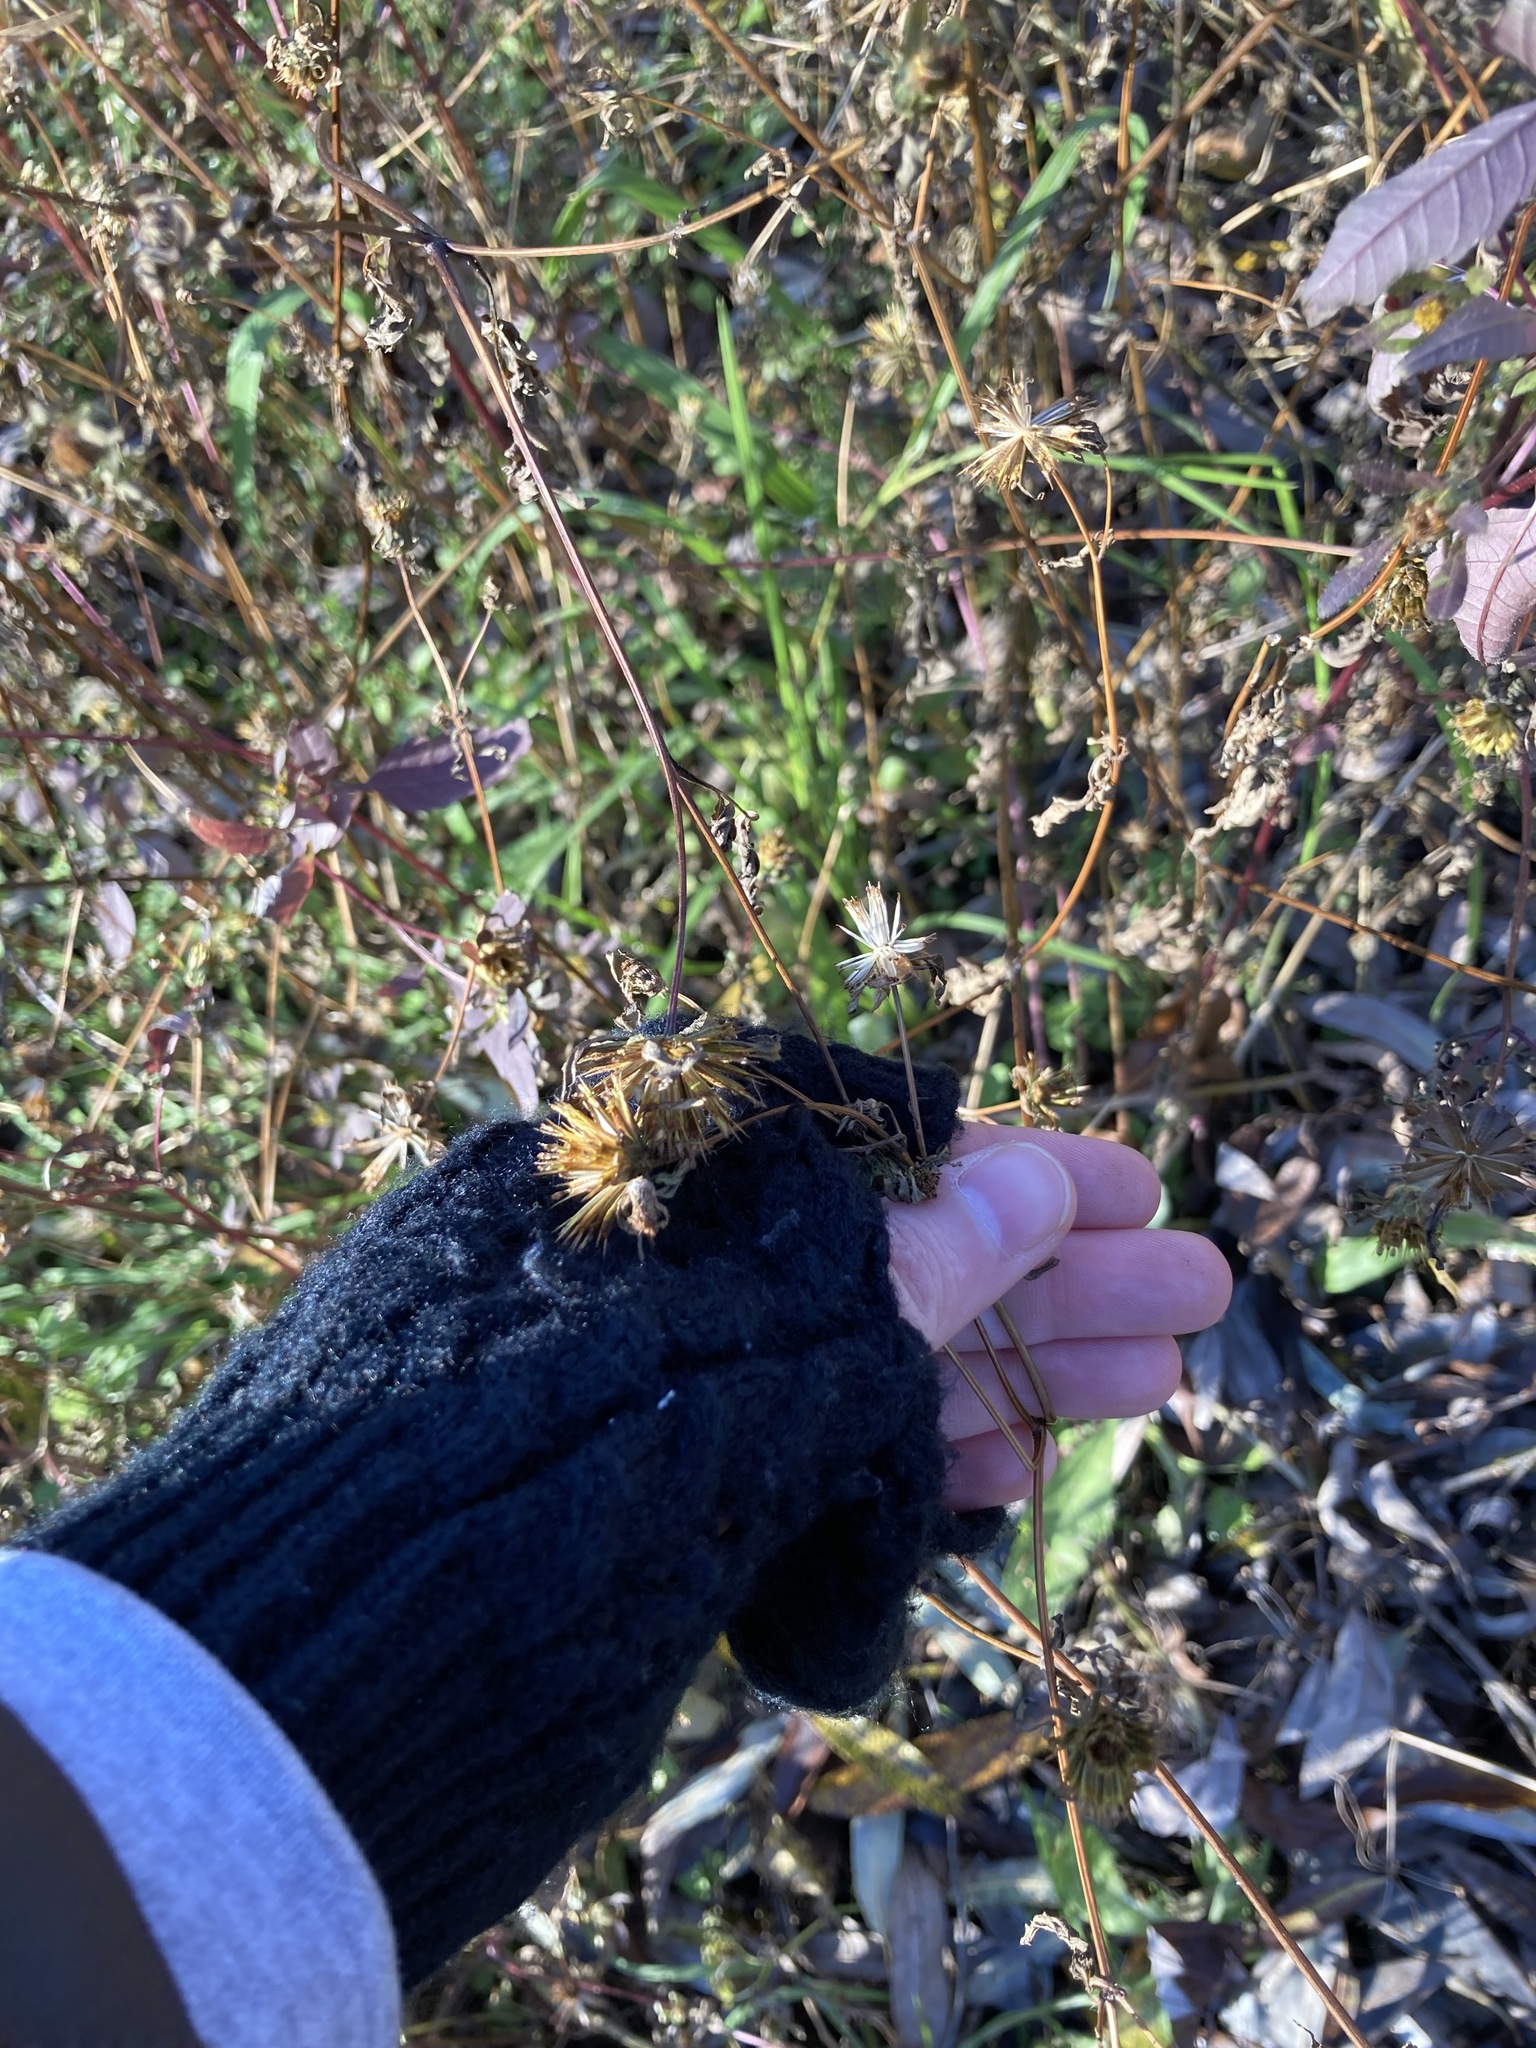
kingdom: Plantae
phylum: Tracheophyta
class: Magnoliopsida
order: Asterales
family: Asteraceae
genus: Bidens
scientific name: Bidens frondosa
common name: Beggarticks
